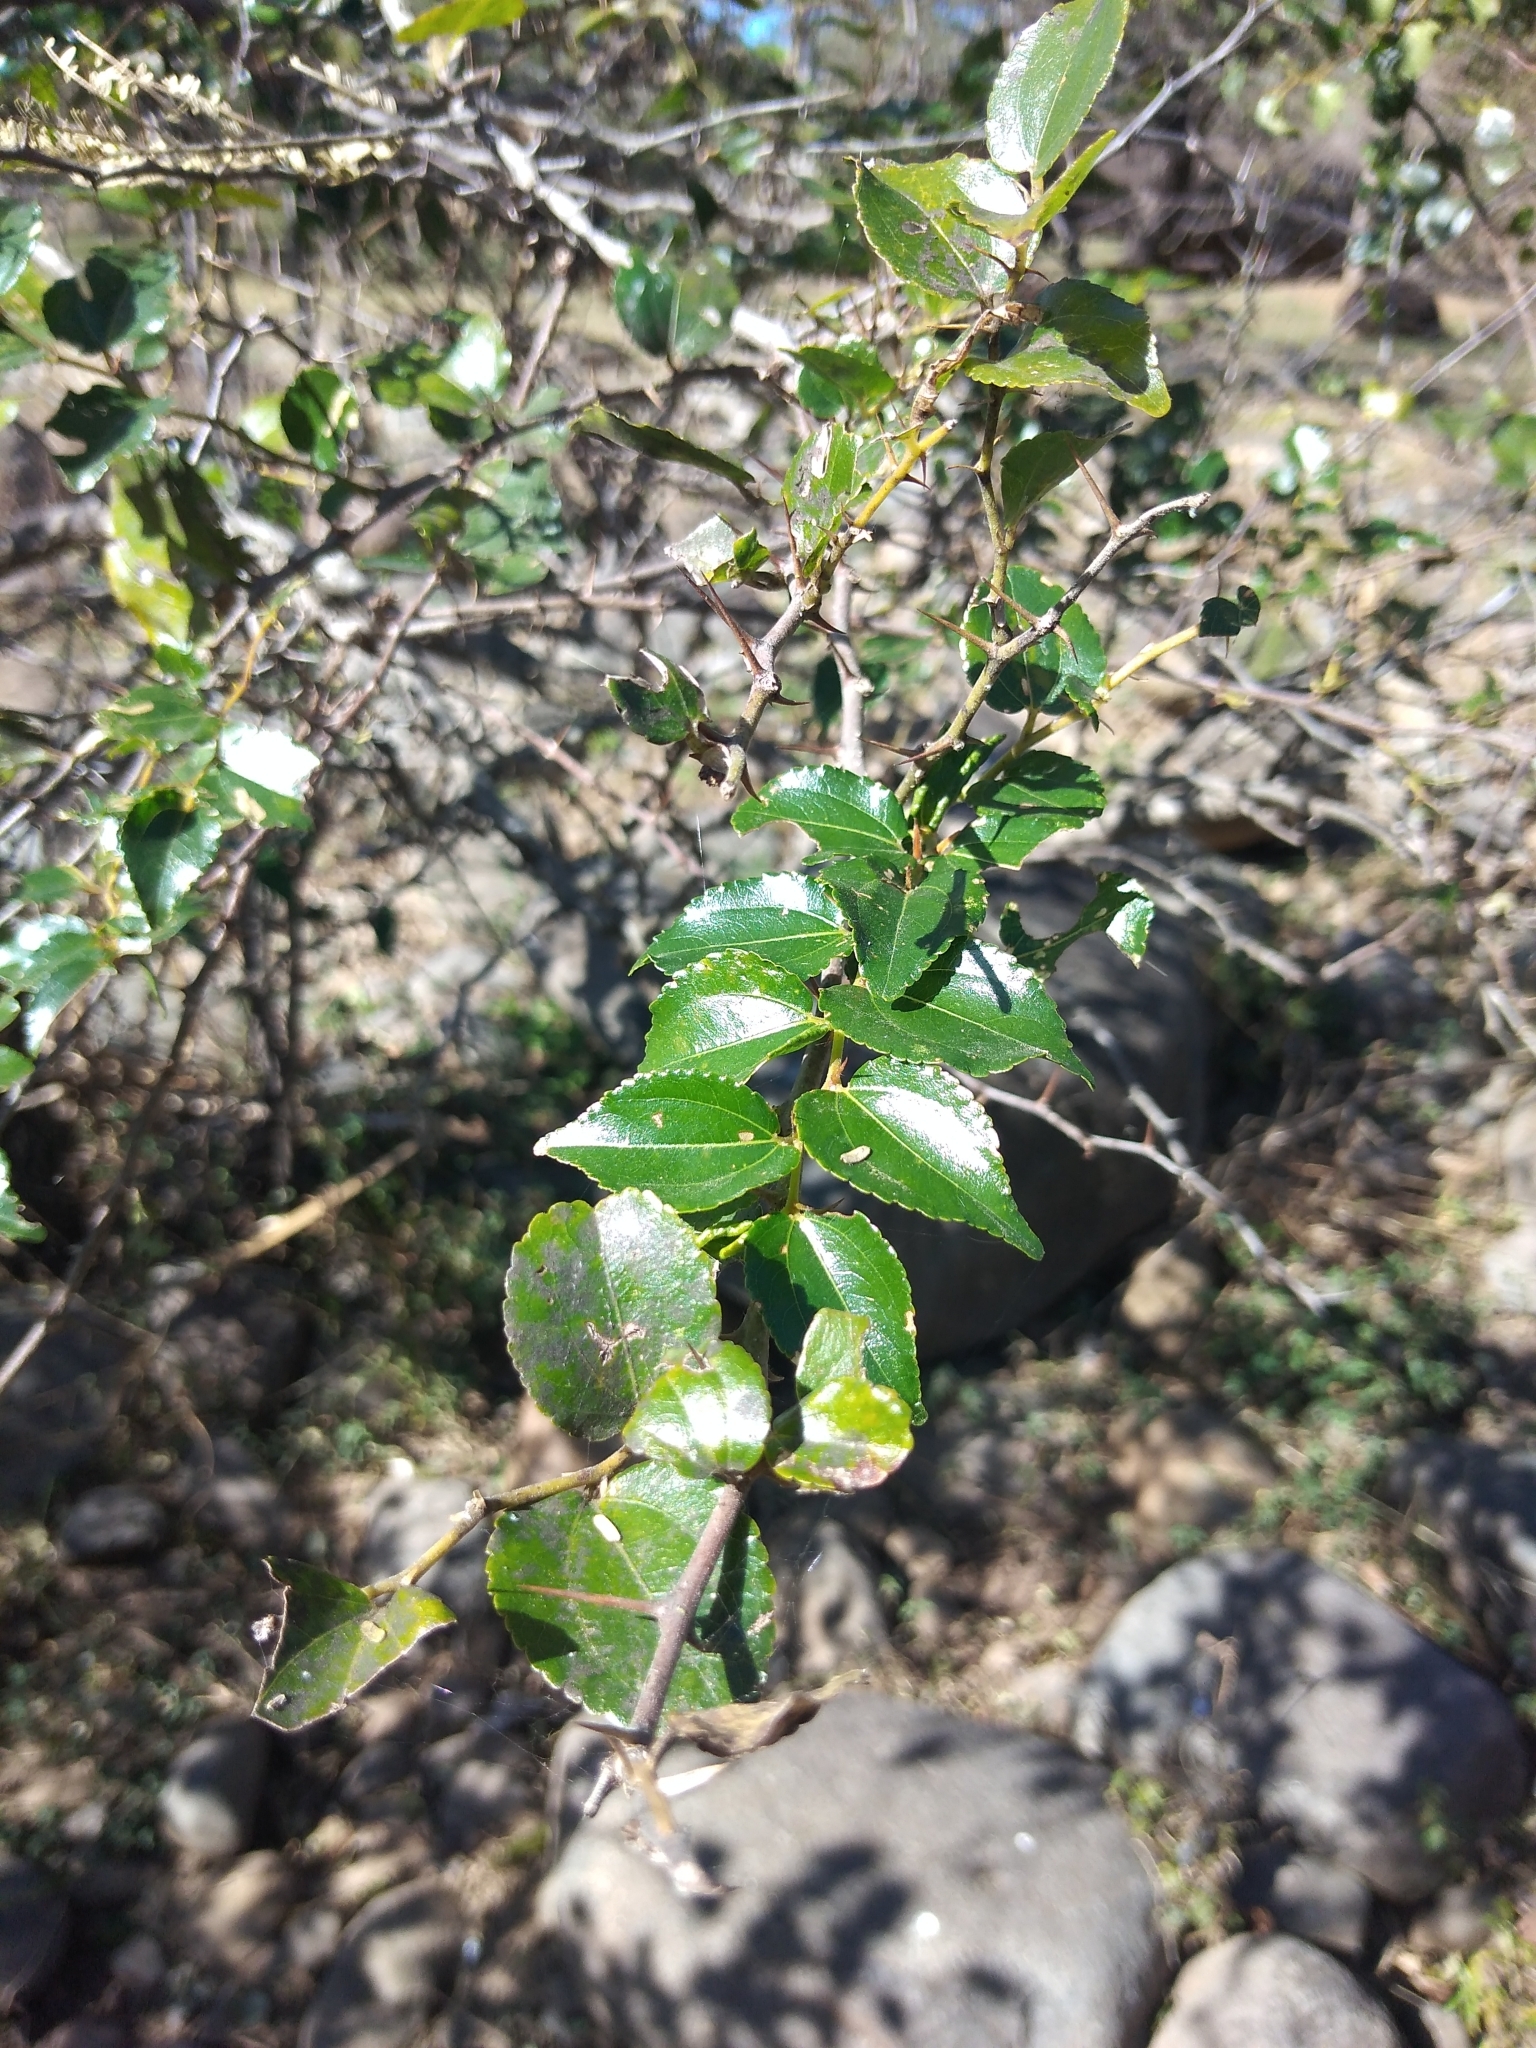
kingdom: Plantae
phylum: Tracheophyta
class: Magnoliopsida
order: Rosales
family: Rhamnaceae
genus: Ziziphus
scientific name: Ziziphus mucronata
